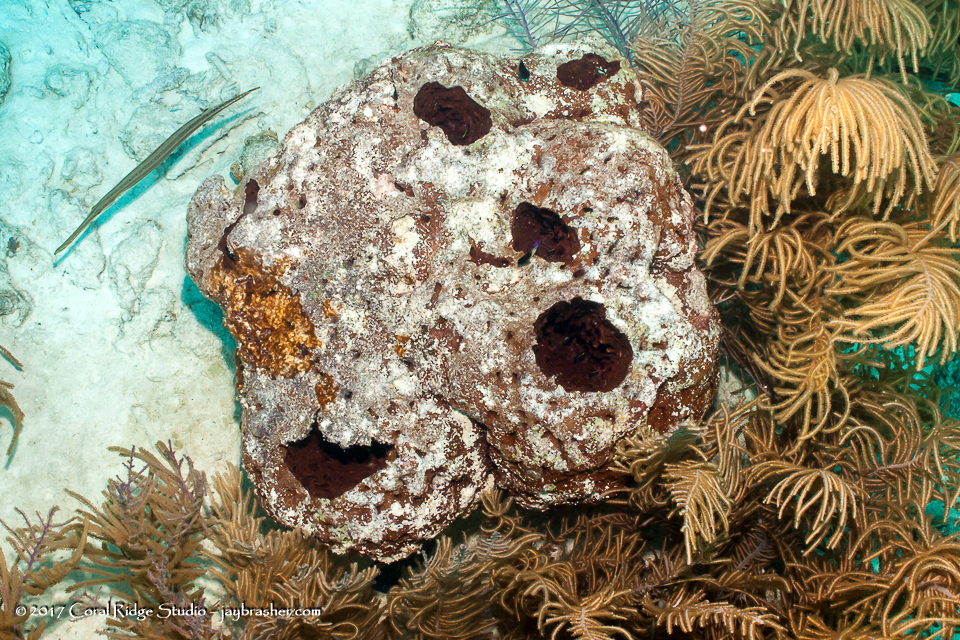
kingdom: Animalia
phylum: Porifera
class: Demospongiae
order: Biemnida
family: Biemnidae
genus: Neofibularia
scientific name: Neofibularia nolitangere
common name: Do-not-touch-me sponge
